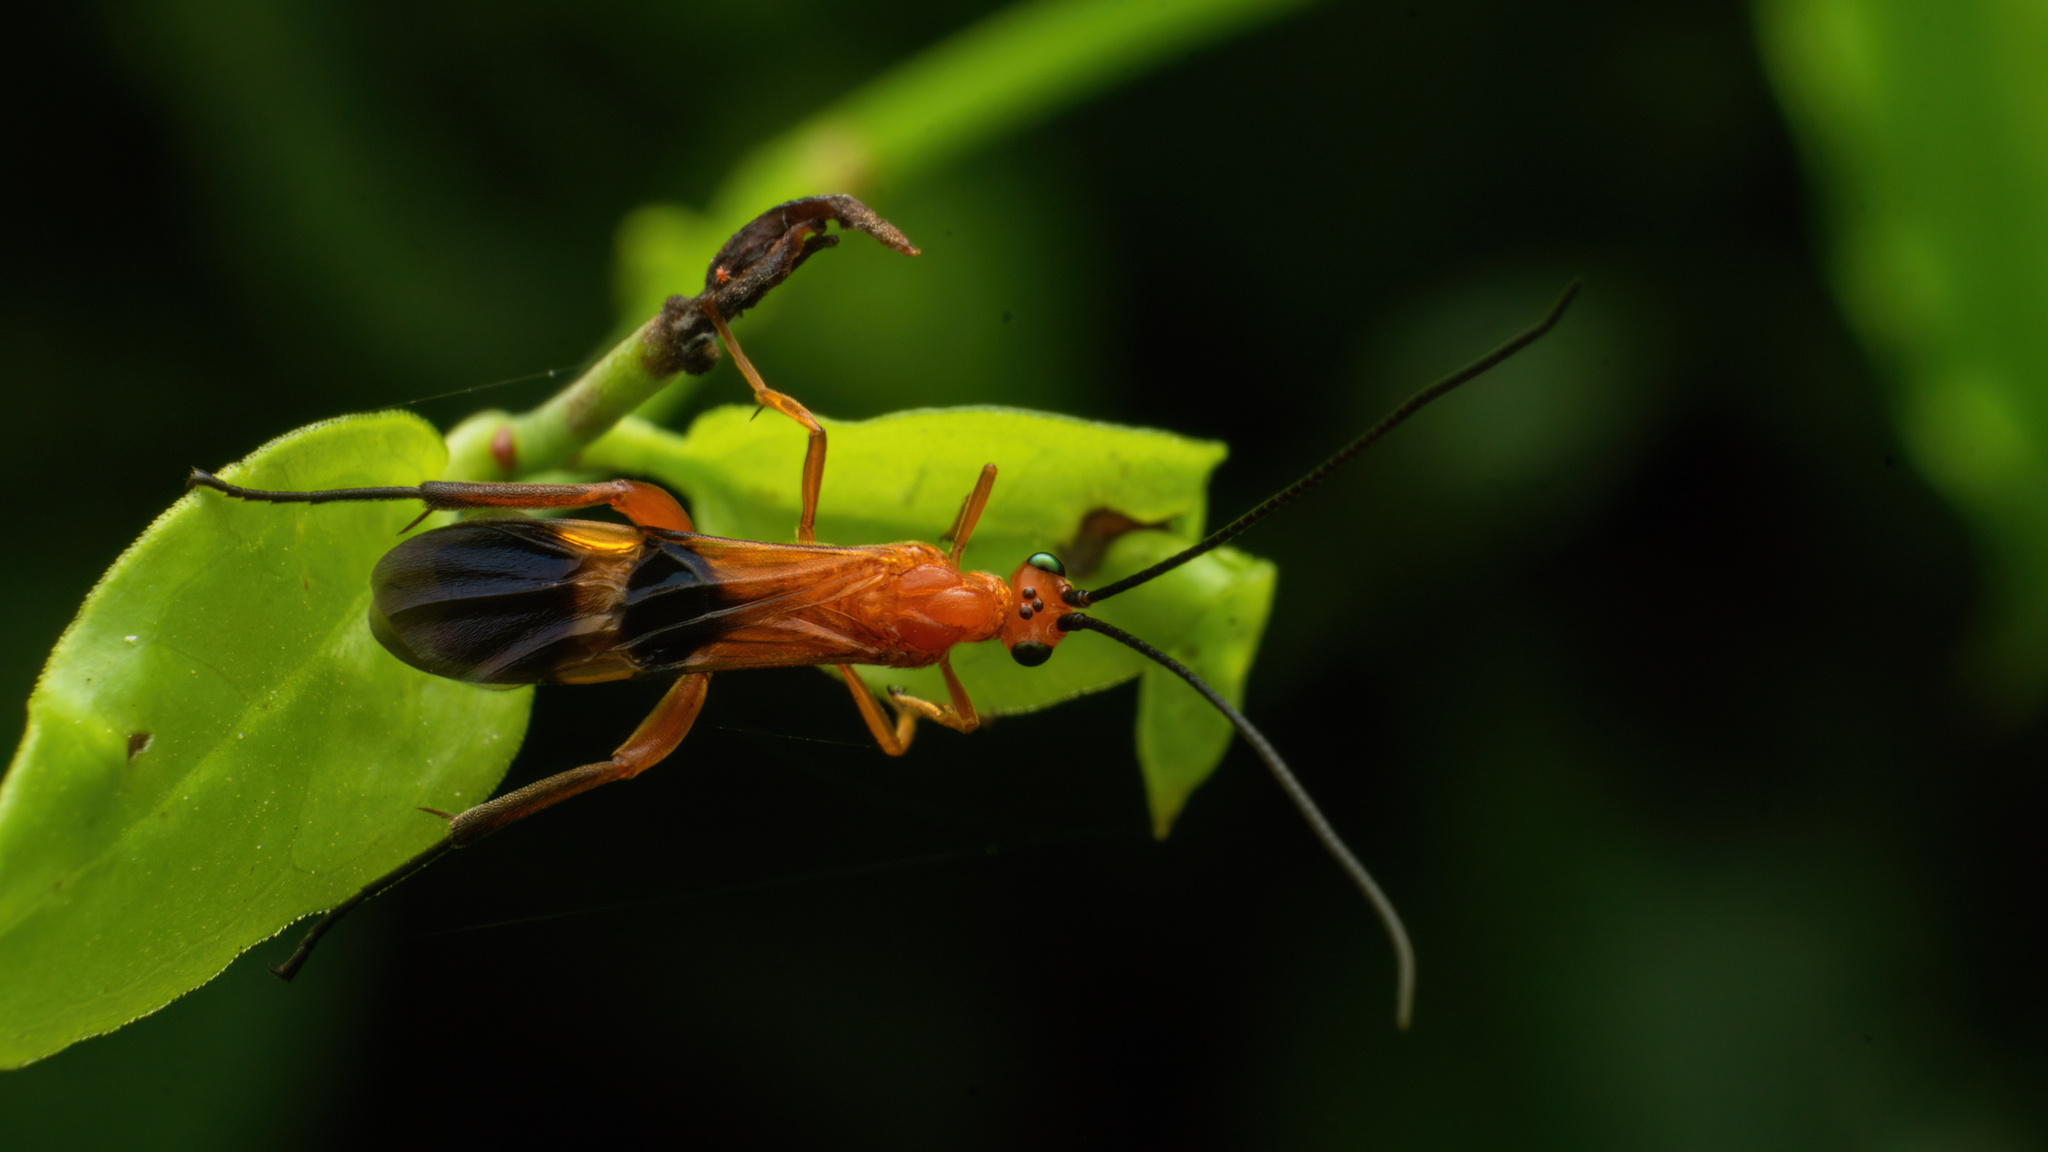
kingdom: Animalia
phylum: Arthropoda
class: Insecta
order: Hymenoptera
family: Braconidae
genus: Cremnops
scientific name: Cremnops desertor
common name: Braconid wasp
